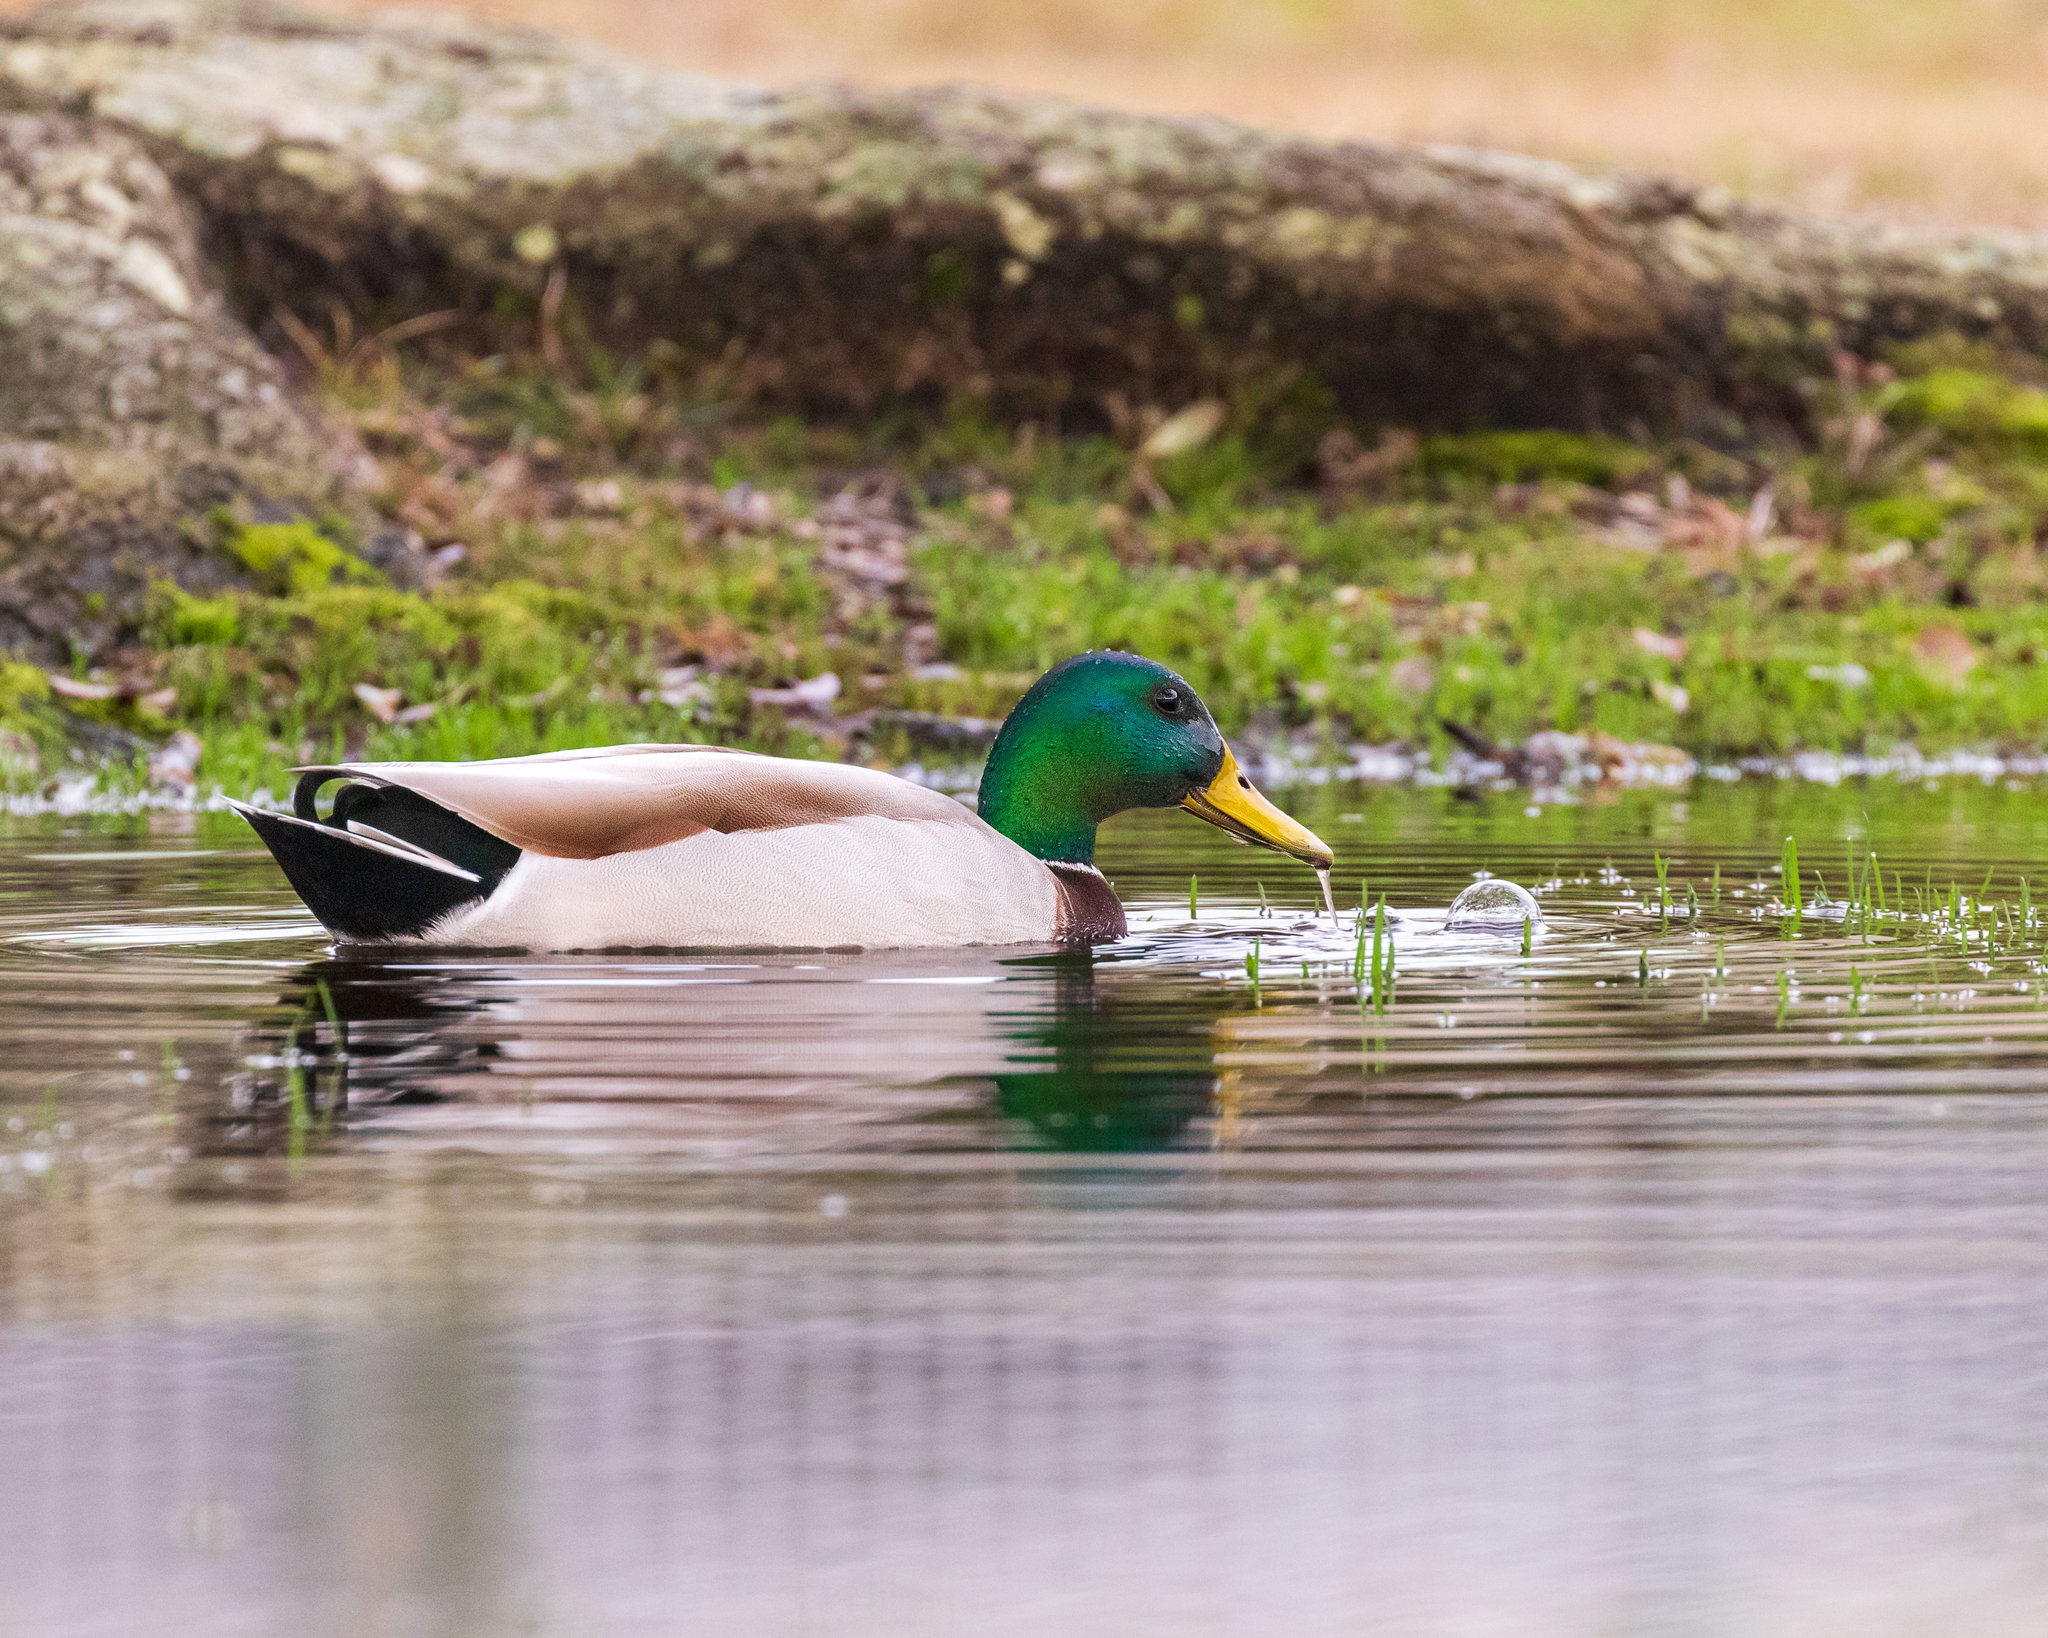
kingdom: Animalia
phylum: Chordata
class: Aves
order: Anseriformes
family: Anatidae
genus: Anas
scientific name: Anas platyrhynchos
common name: Mallard
